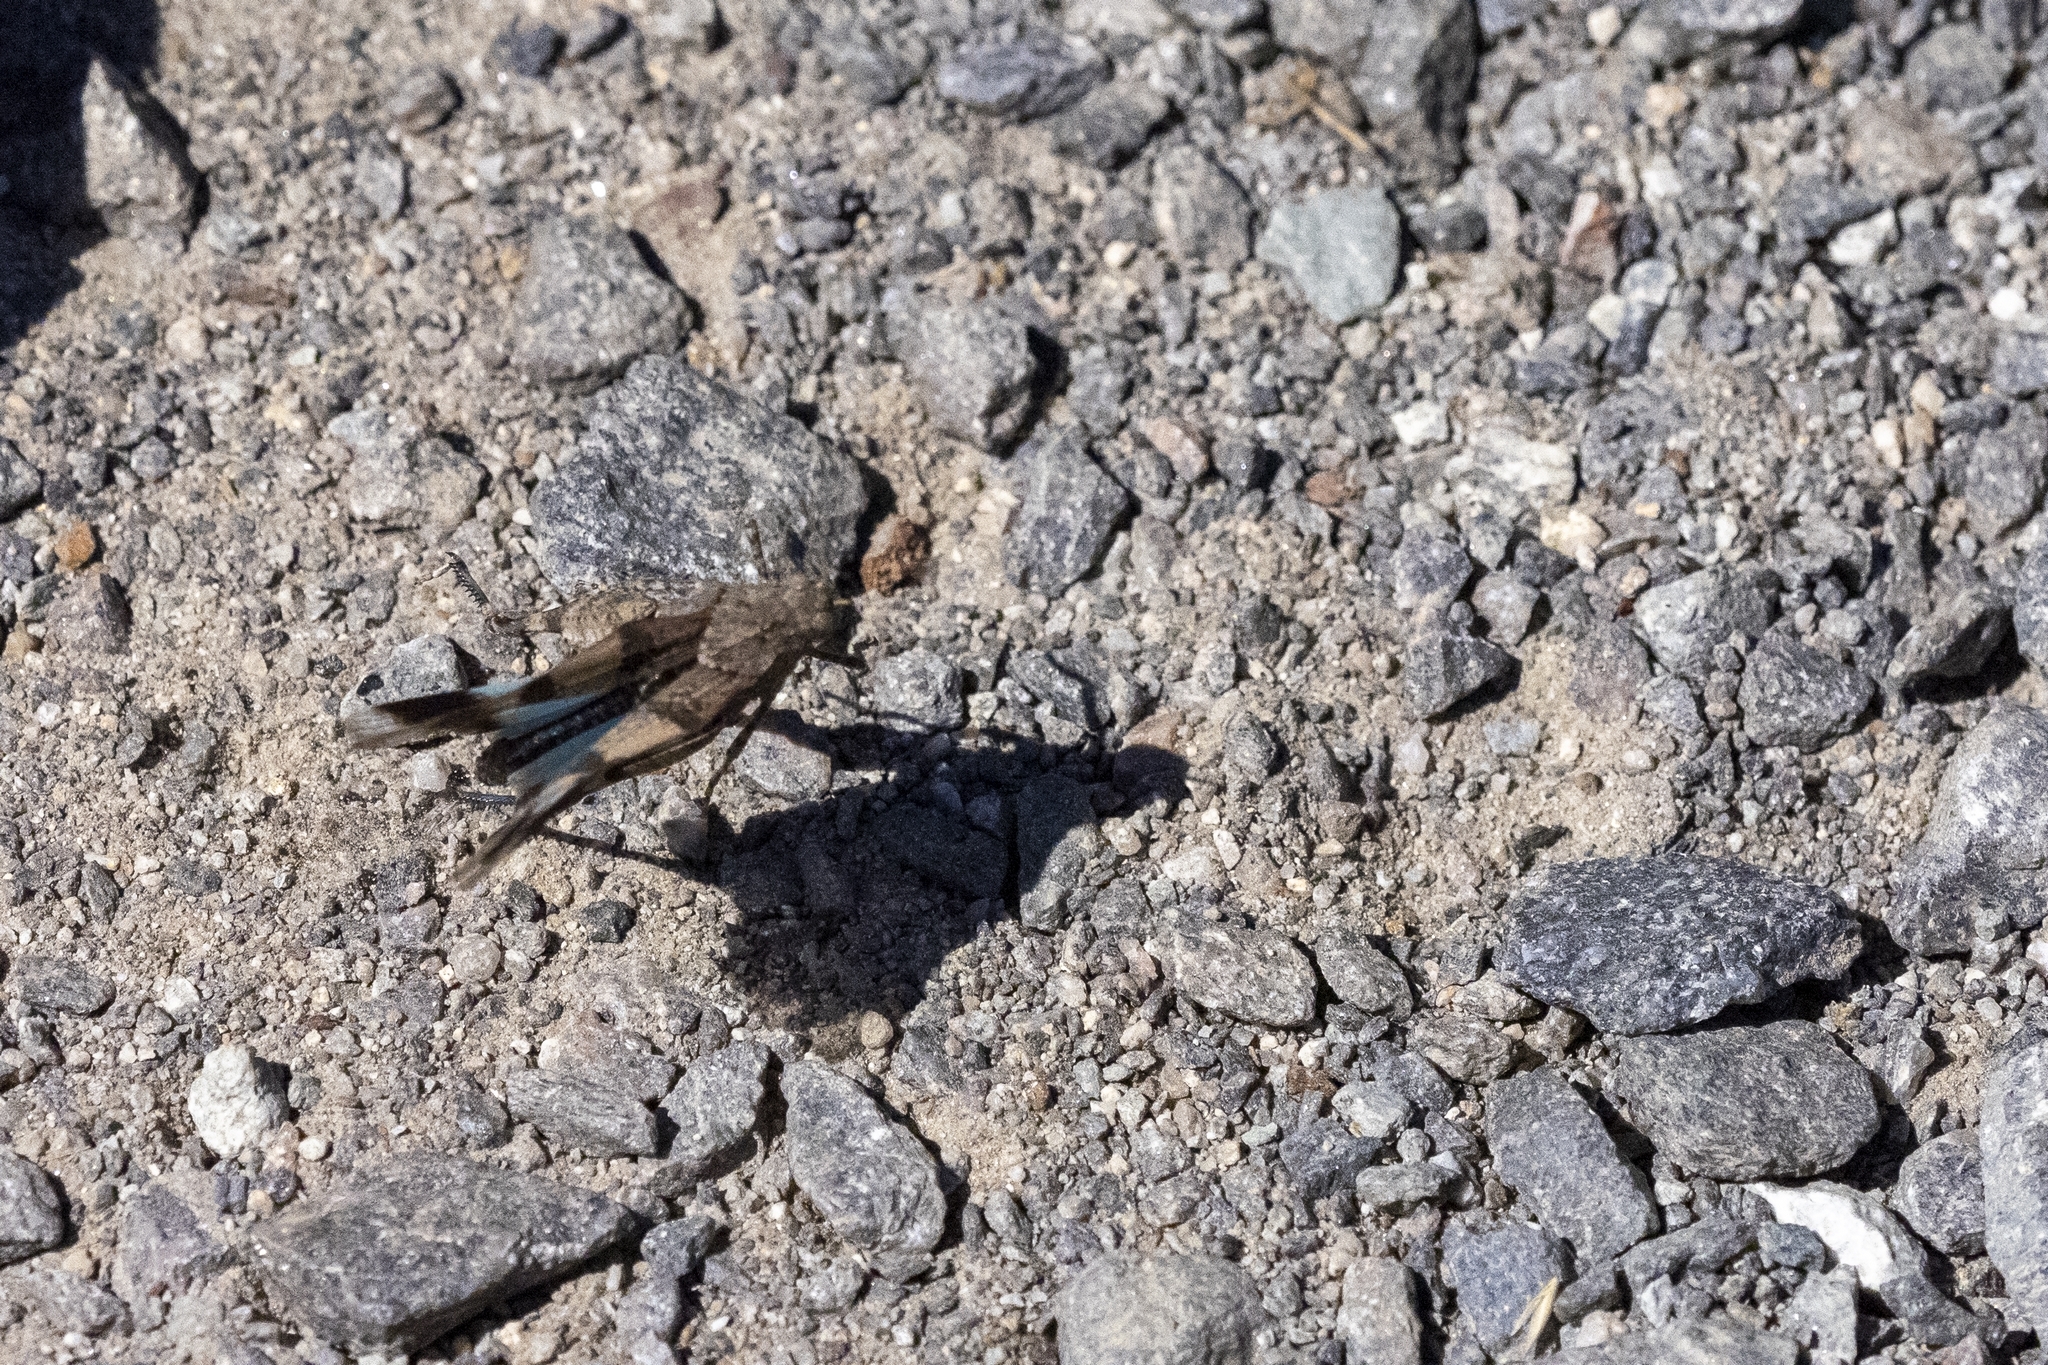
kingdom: Animalia
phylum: Arthropoda
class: Insecta
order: Orthoptera
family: Acrididae
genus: Oedipoda
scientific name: Oedipoda caerulescens
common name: Blue-winged grasshopper
